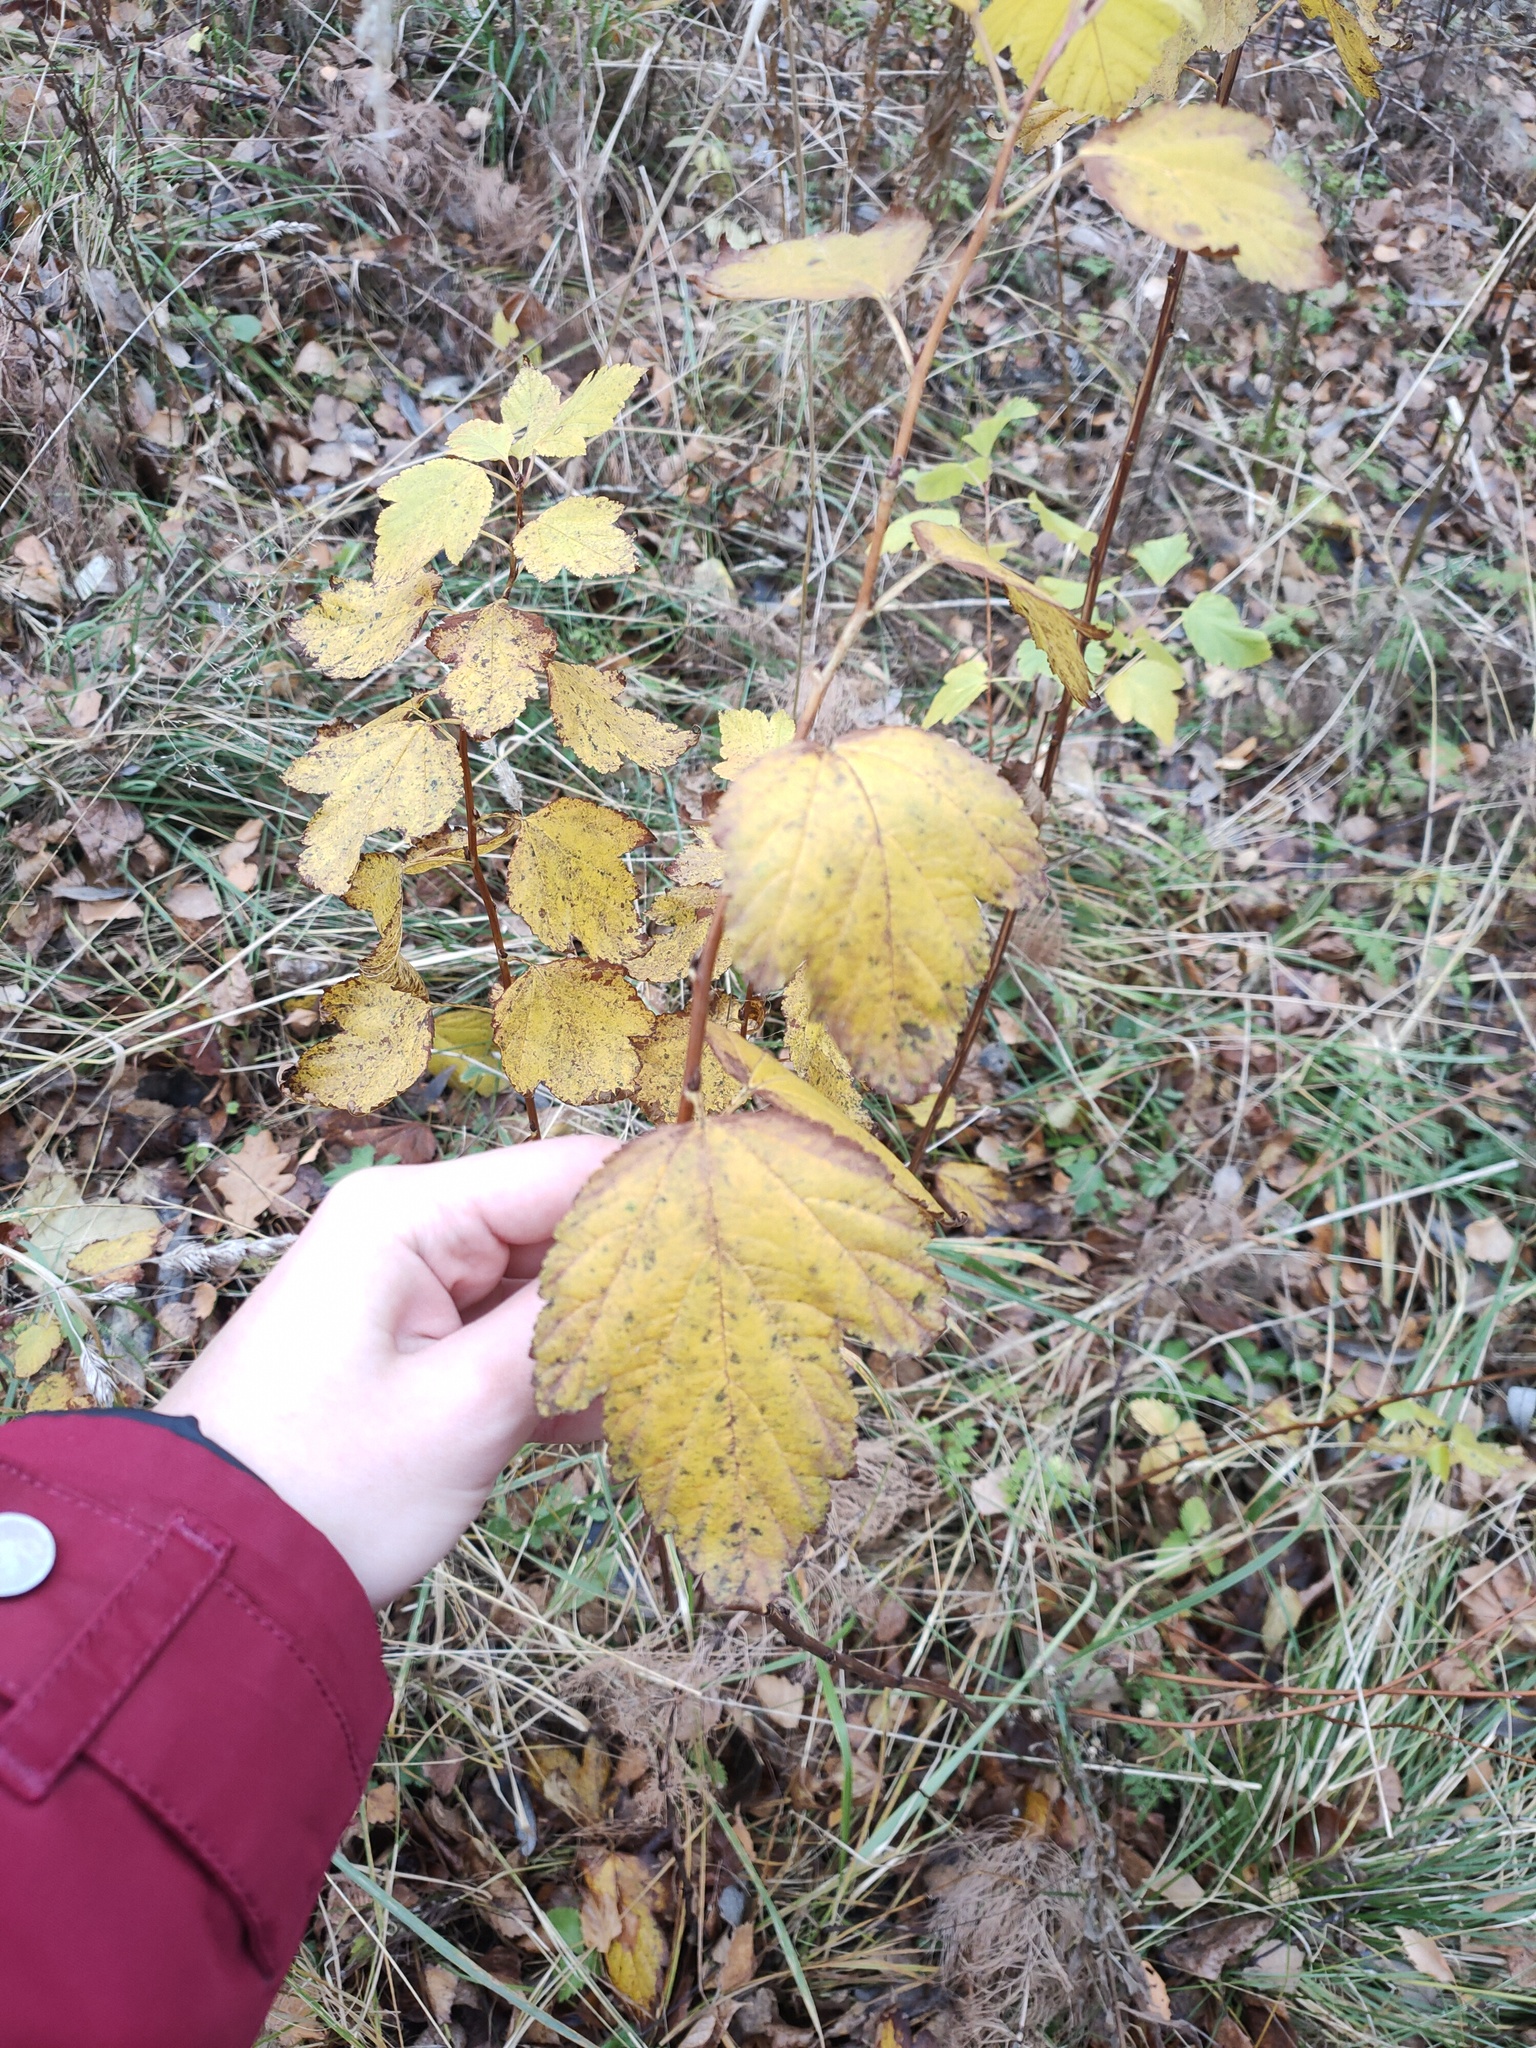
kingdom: Plantae
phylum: Tracheophyta
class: Magnoliopsida
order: Rosales
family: Rosaceae
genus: Physocarpus
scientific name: Physocarpus opulifolius
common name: Ninebark
